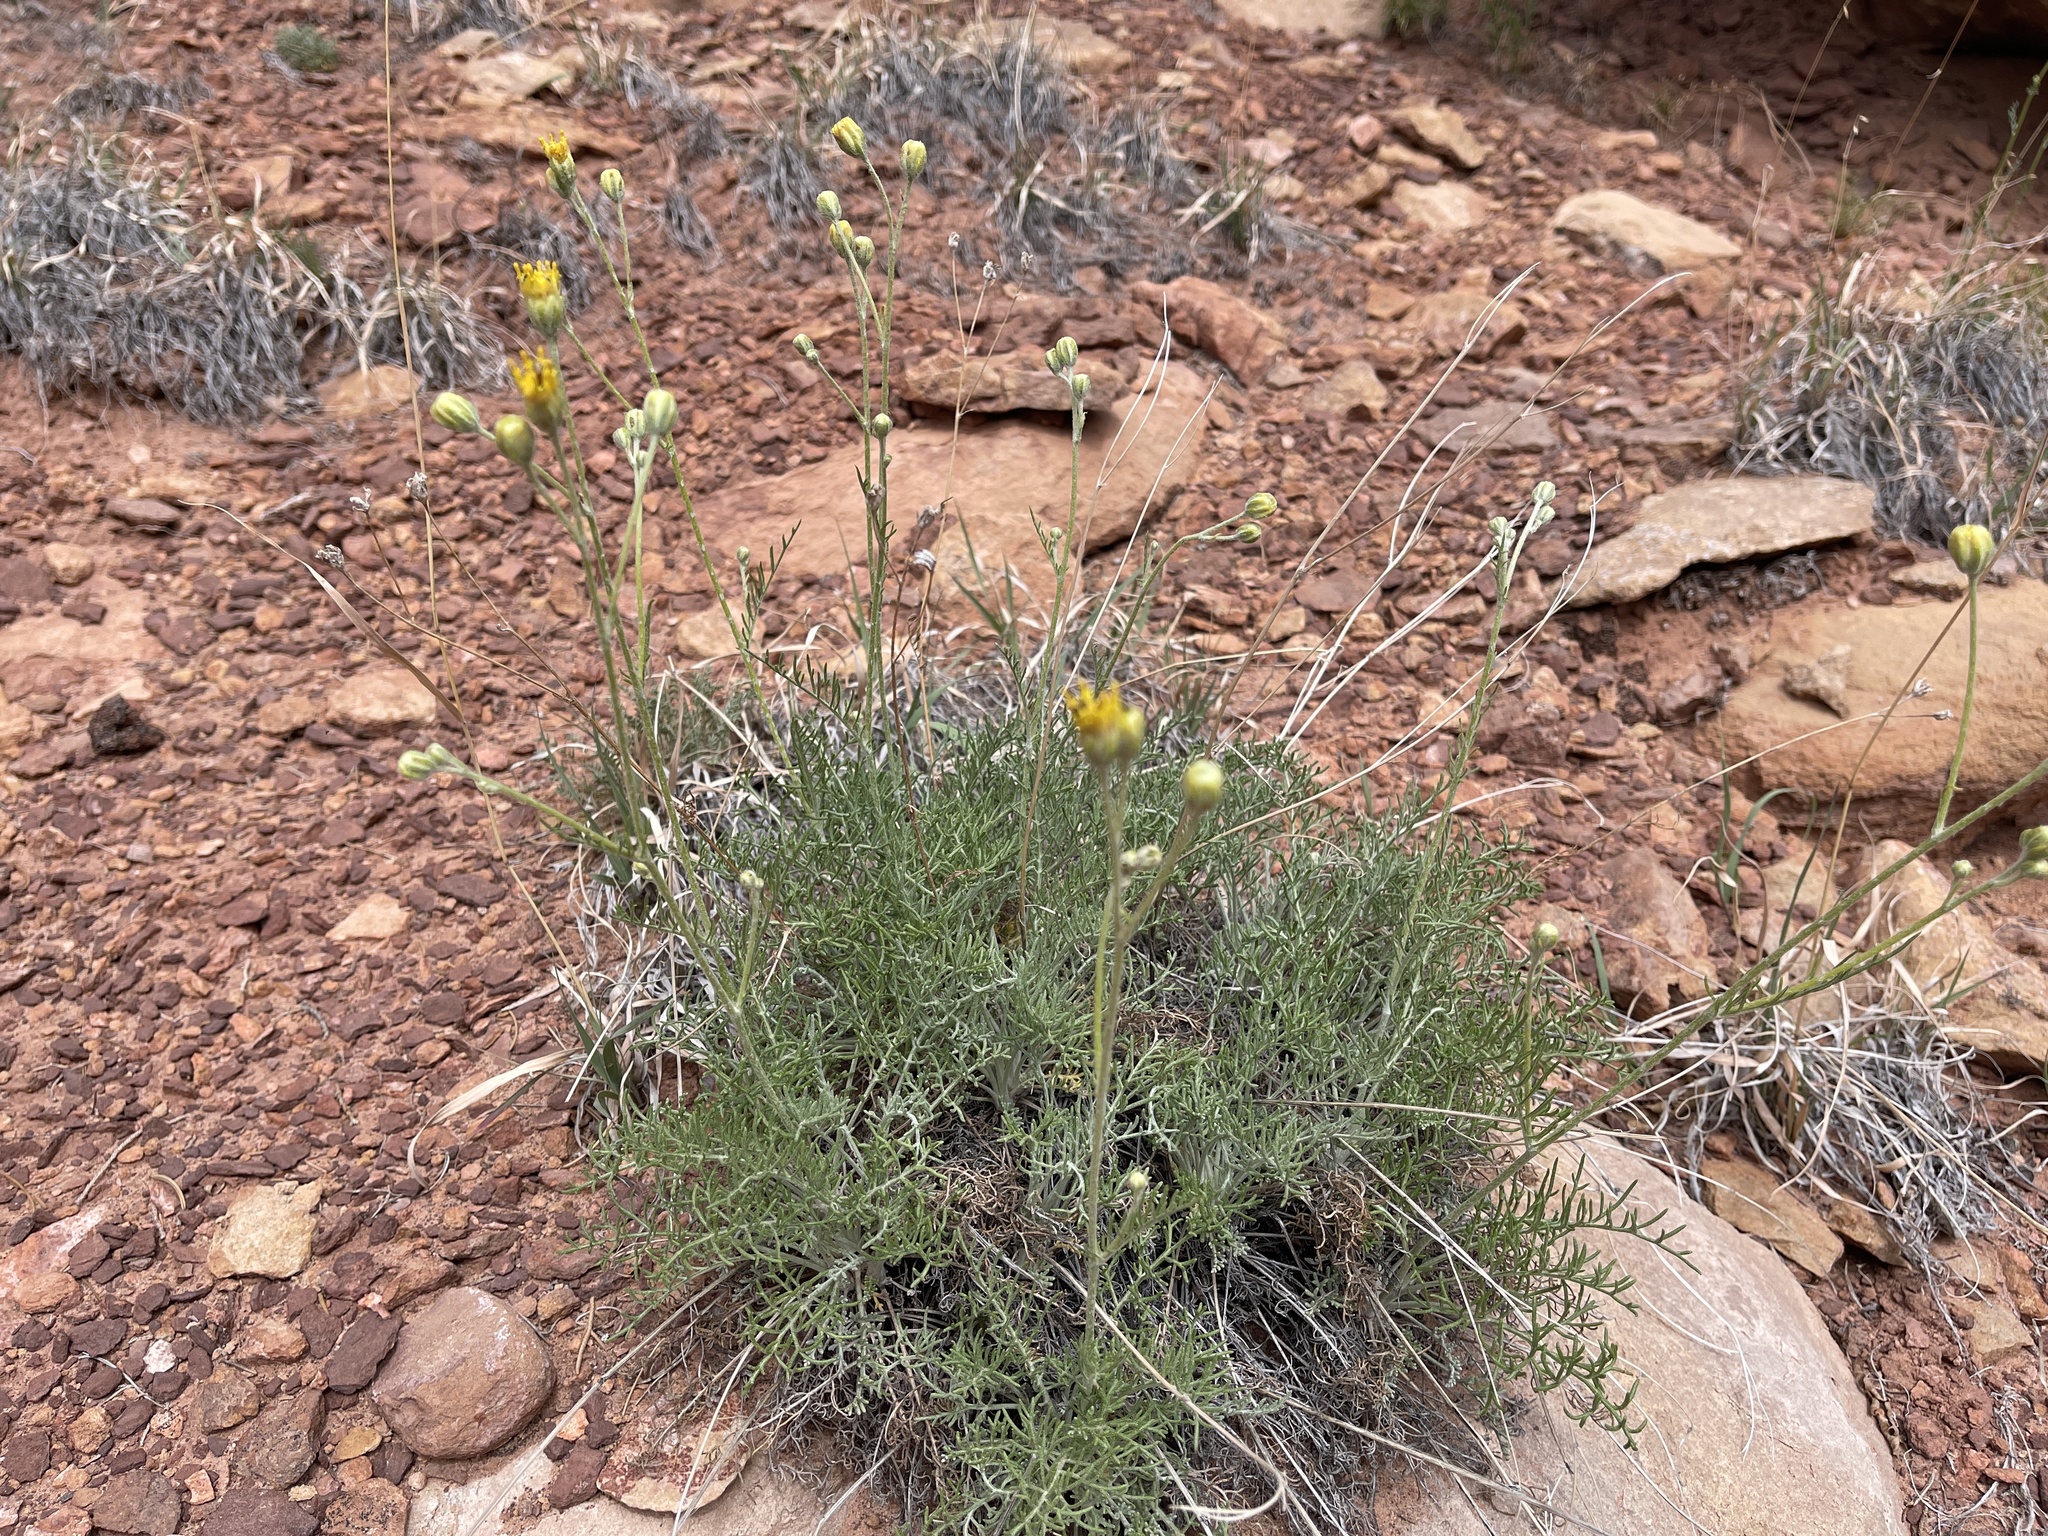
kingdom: Plantae
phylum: Tracheophyta
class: Magnoliopsida
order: Asterales
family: Asteraceae
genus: Hymenopappus
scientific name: Hymenopappus filifolius
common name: Columbia cutleaf
